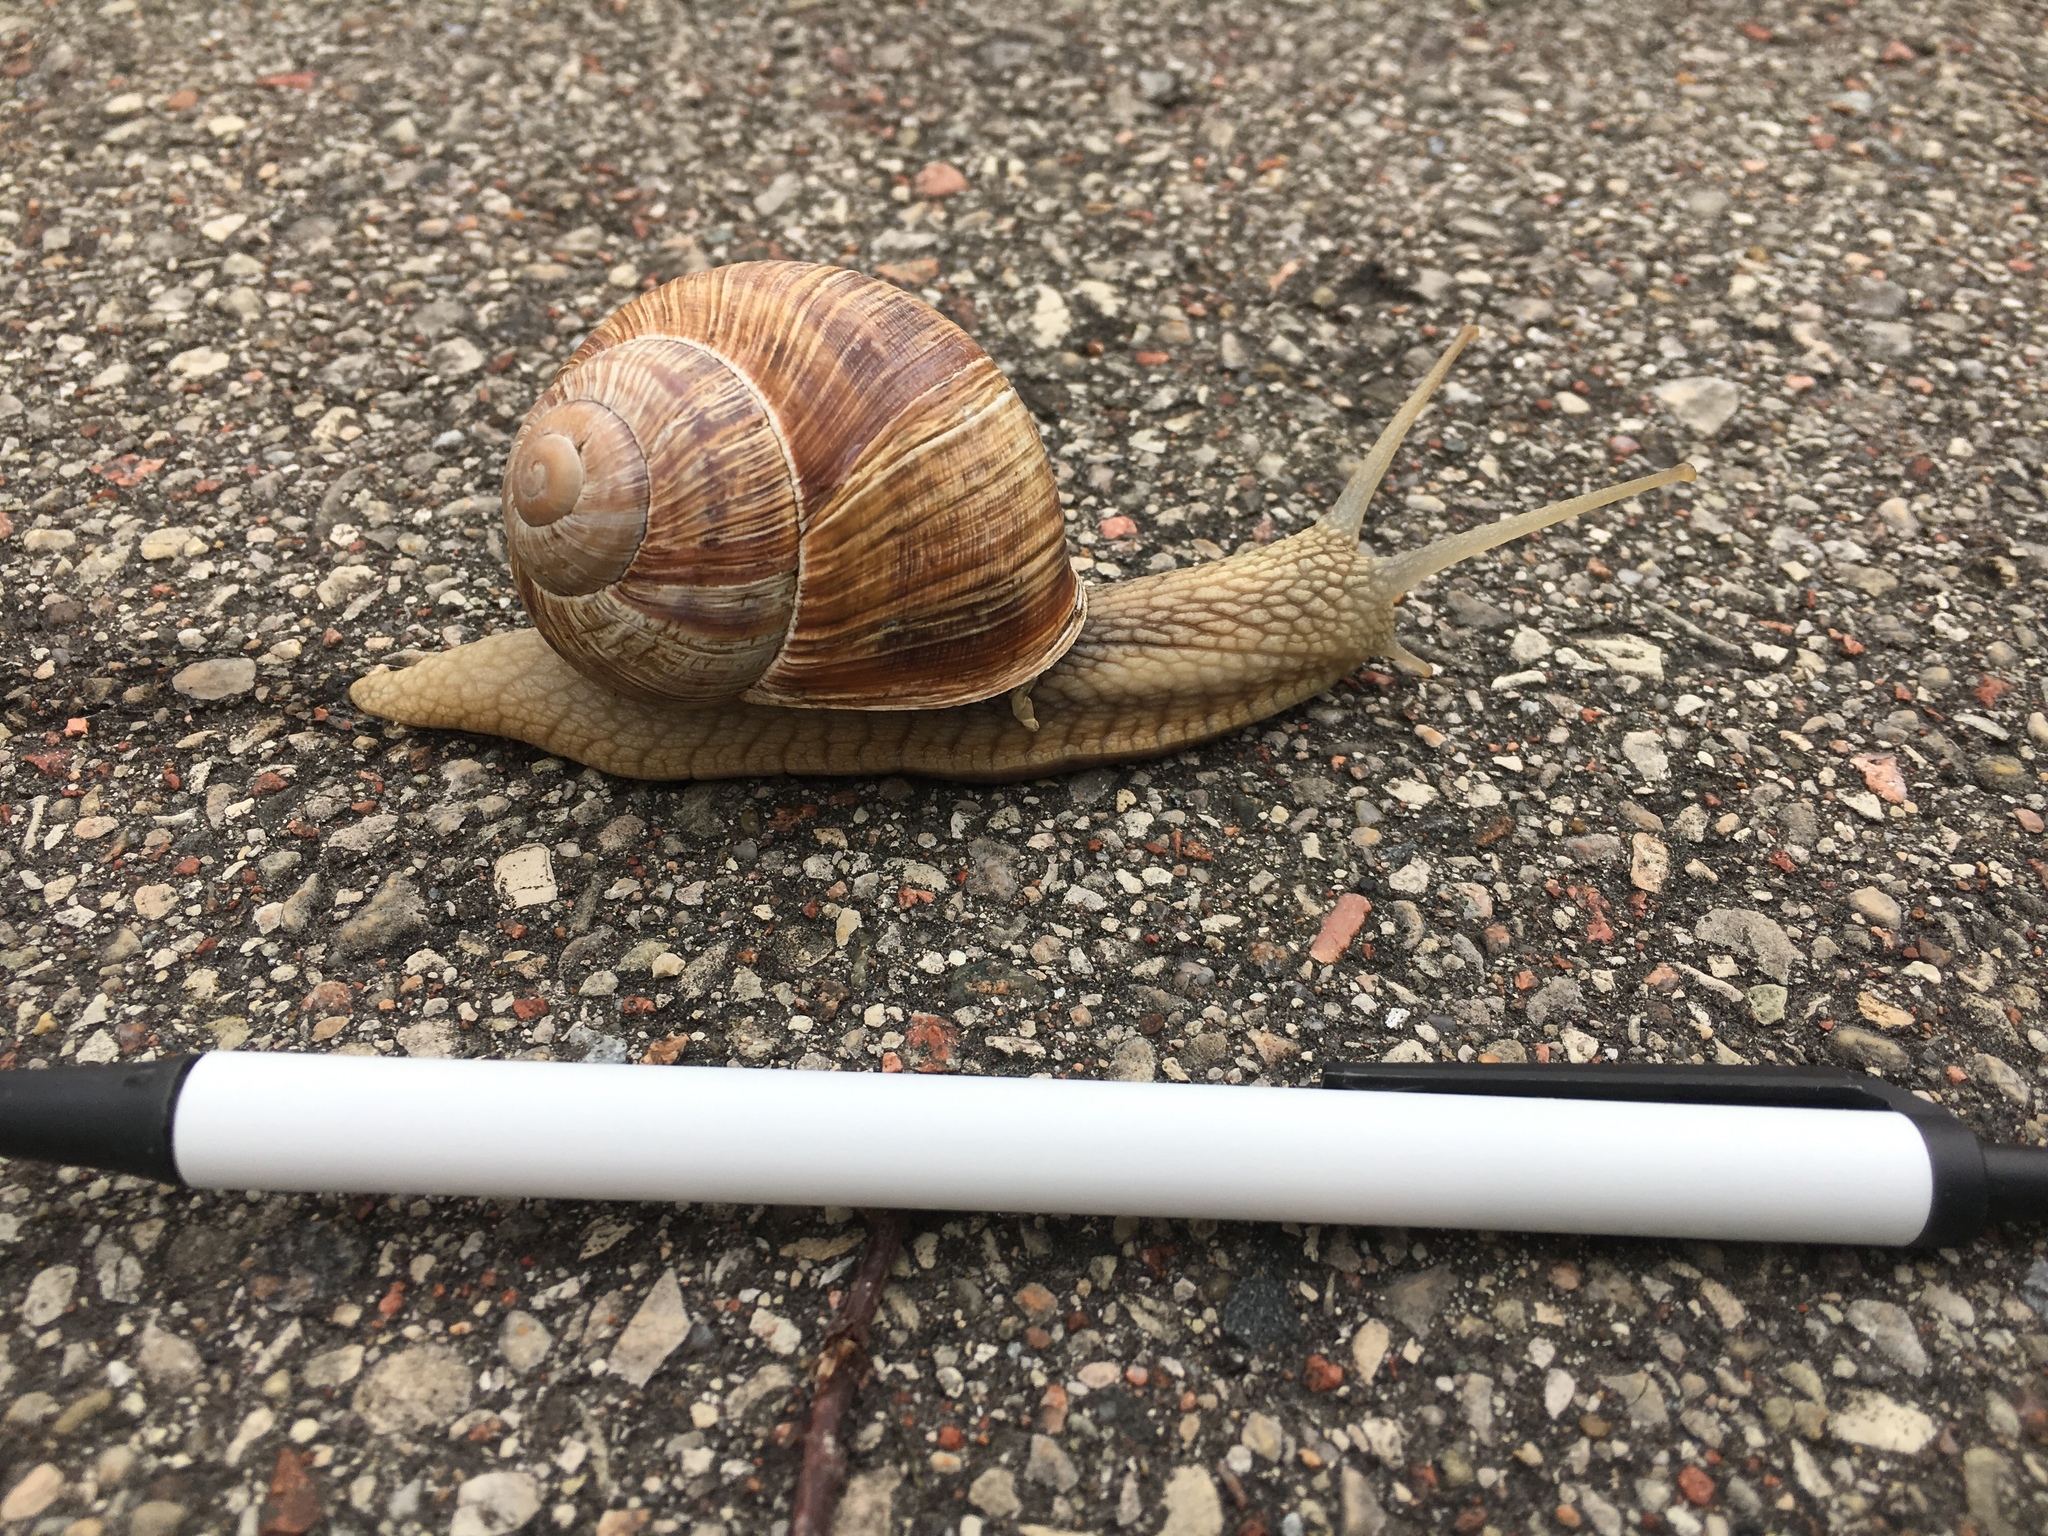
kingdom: Animalia
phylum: Mollusca
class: Gastropoda
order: Stylommatophora
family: Helicidae
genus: Helix
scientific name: Helix pomatia
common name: Roman snail
